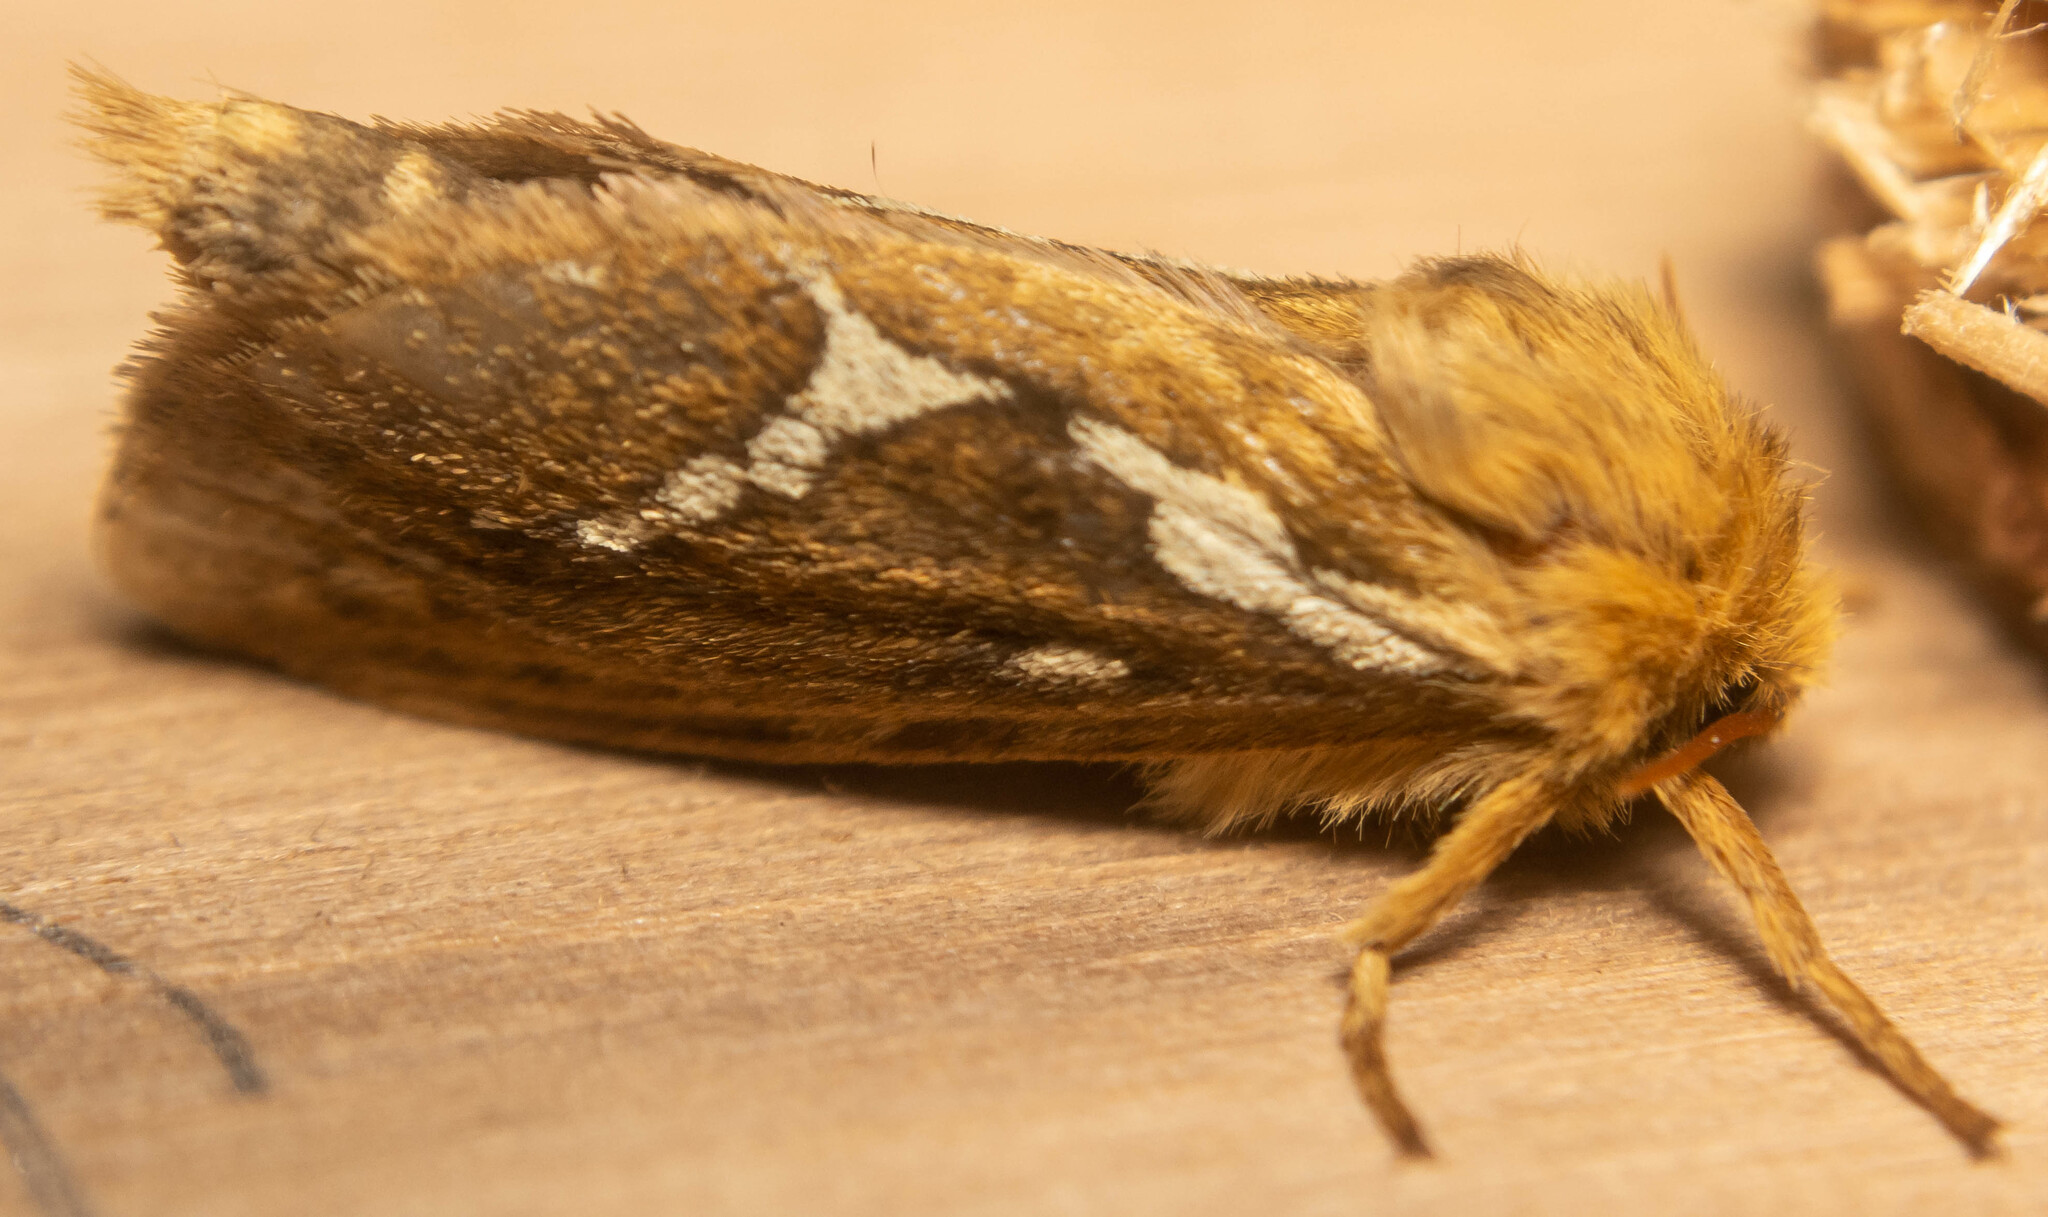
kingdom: Animalia
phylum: Arthropoda
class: Insecta
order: Lepidoptera
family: Hepialidae
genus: Korscheltellus
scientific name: Korscheltellus lupulina
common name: Common swift
